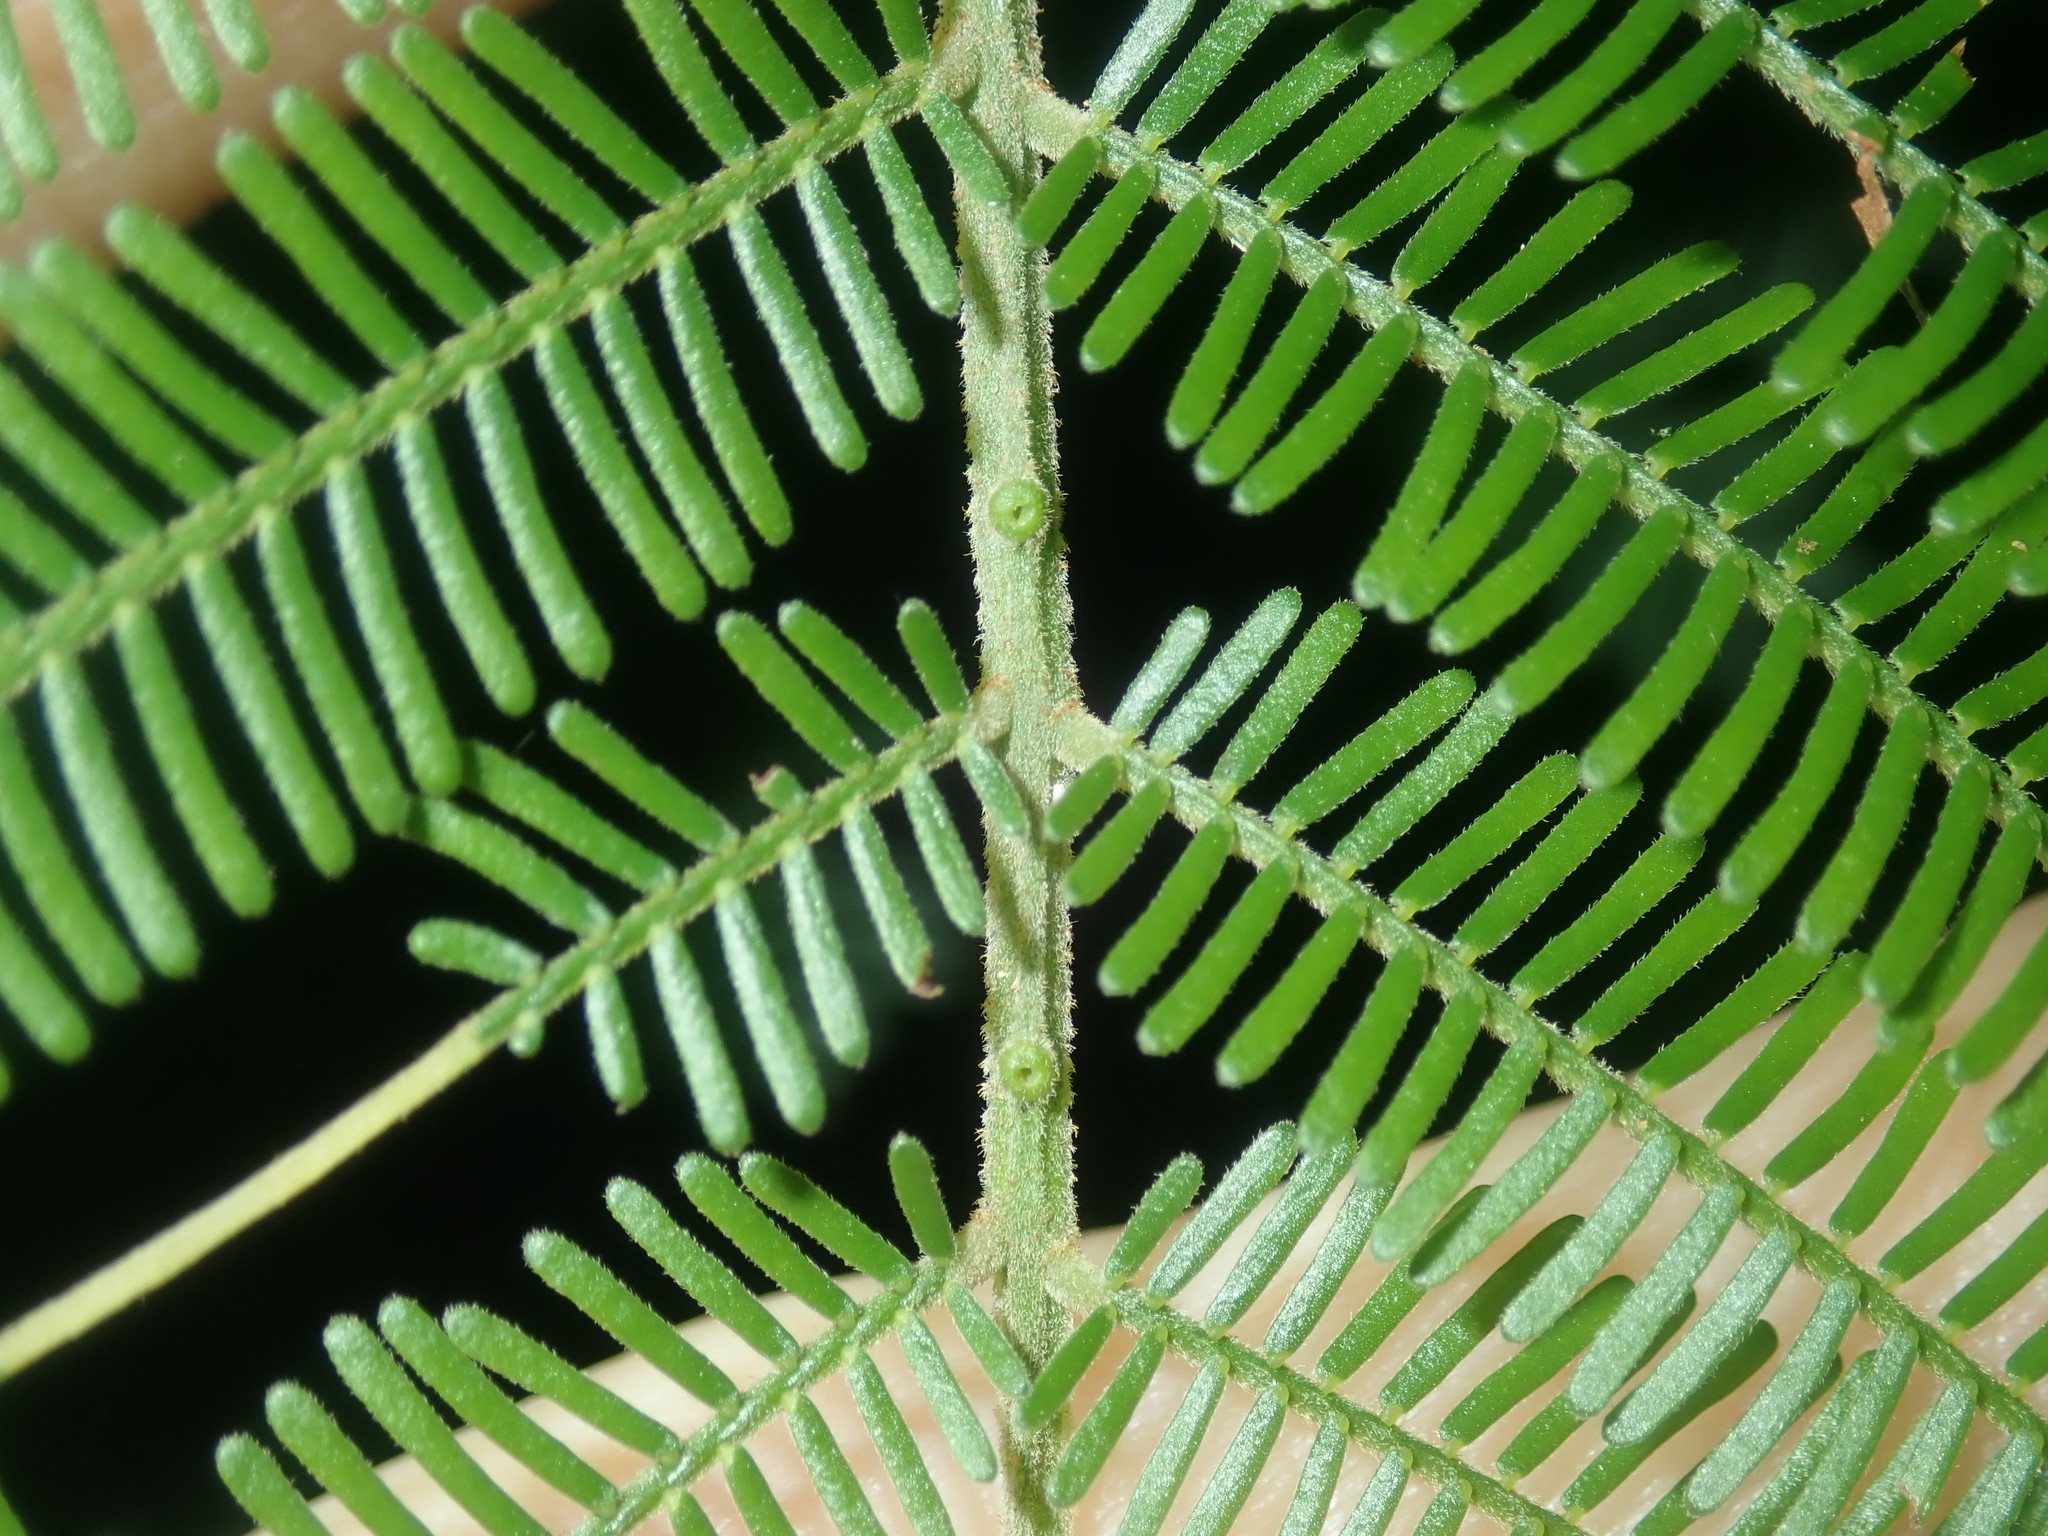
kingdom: Plantae
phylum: Tracheophyta
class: Magnoliopsida
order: Fabales
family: Fabaceae
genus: Acacia
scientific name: Acacia mearnsii
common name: Black wattle
